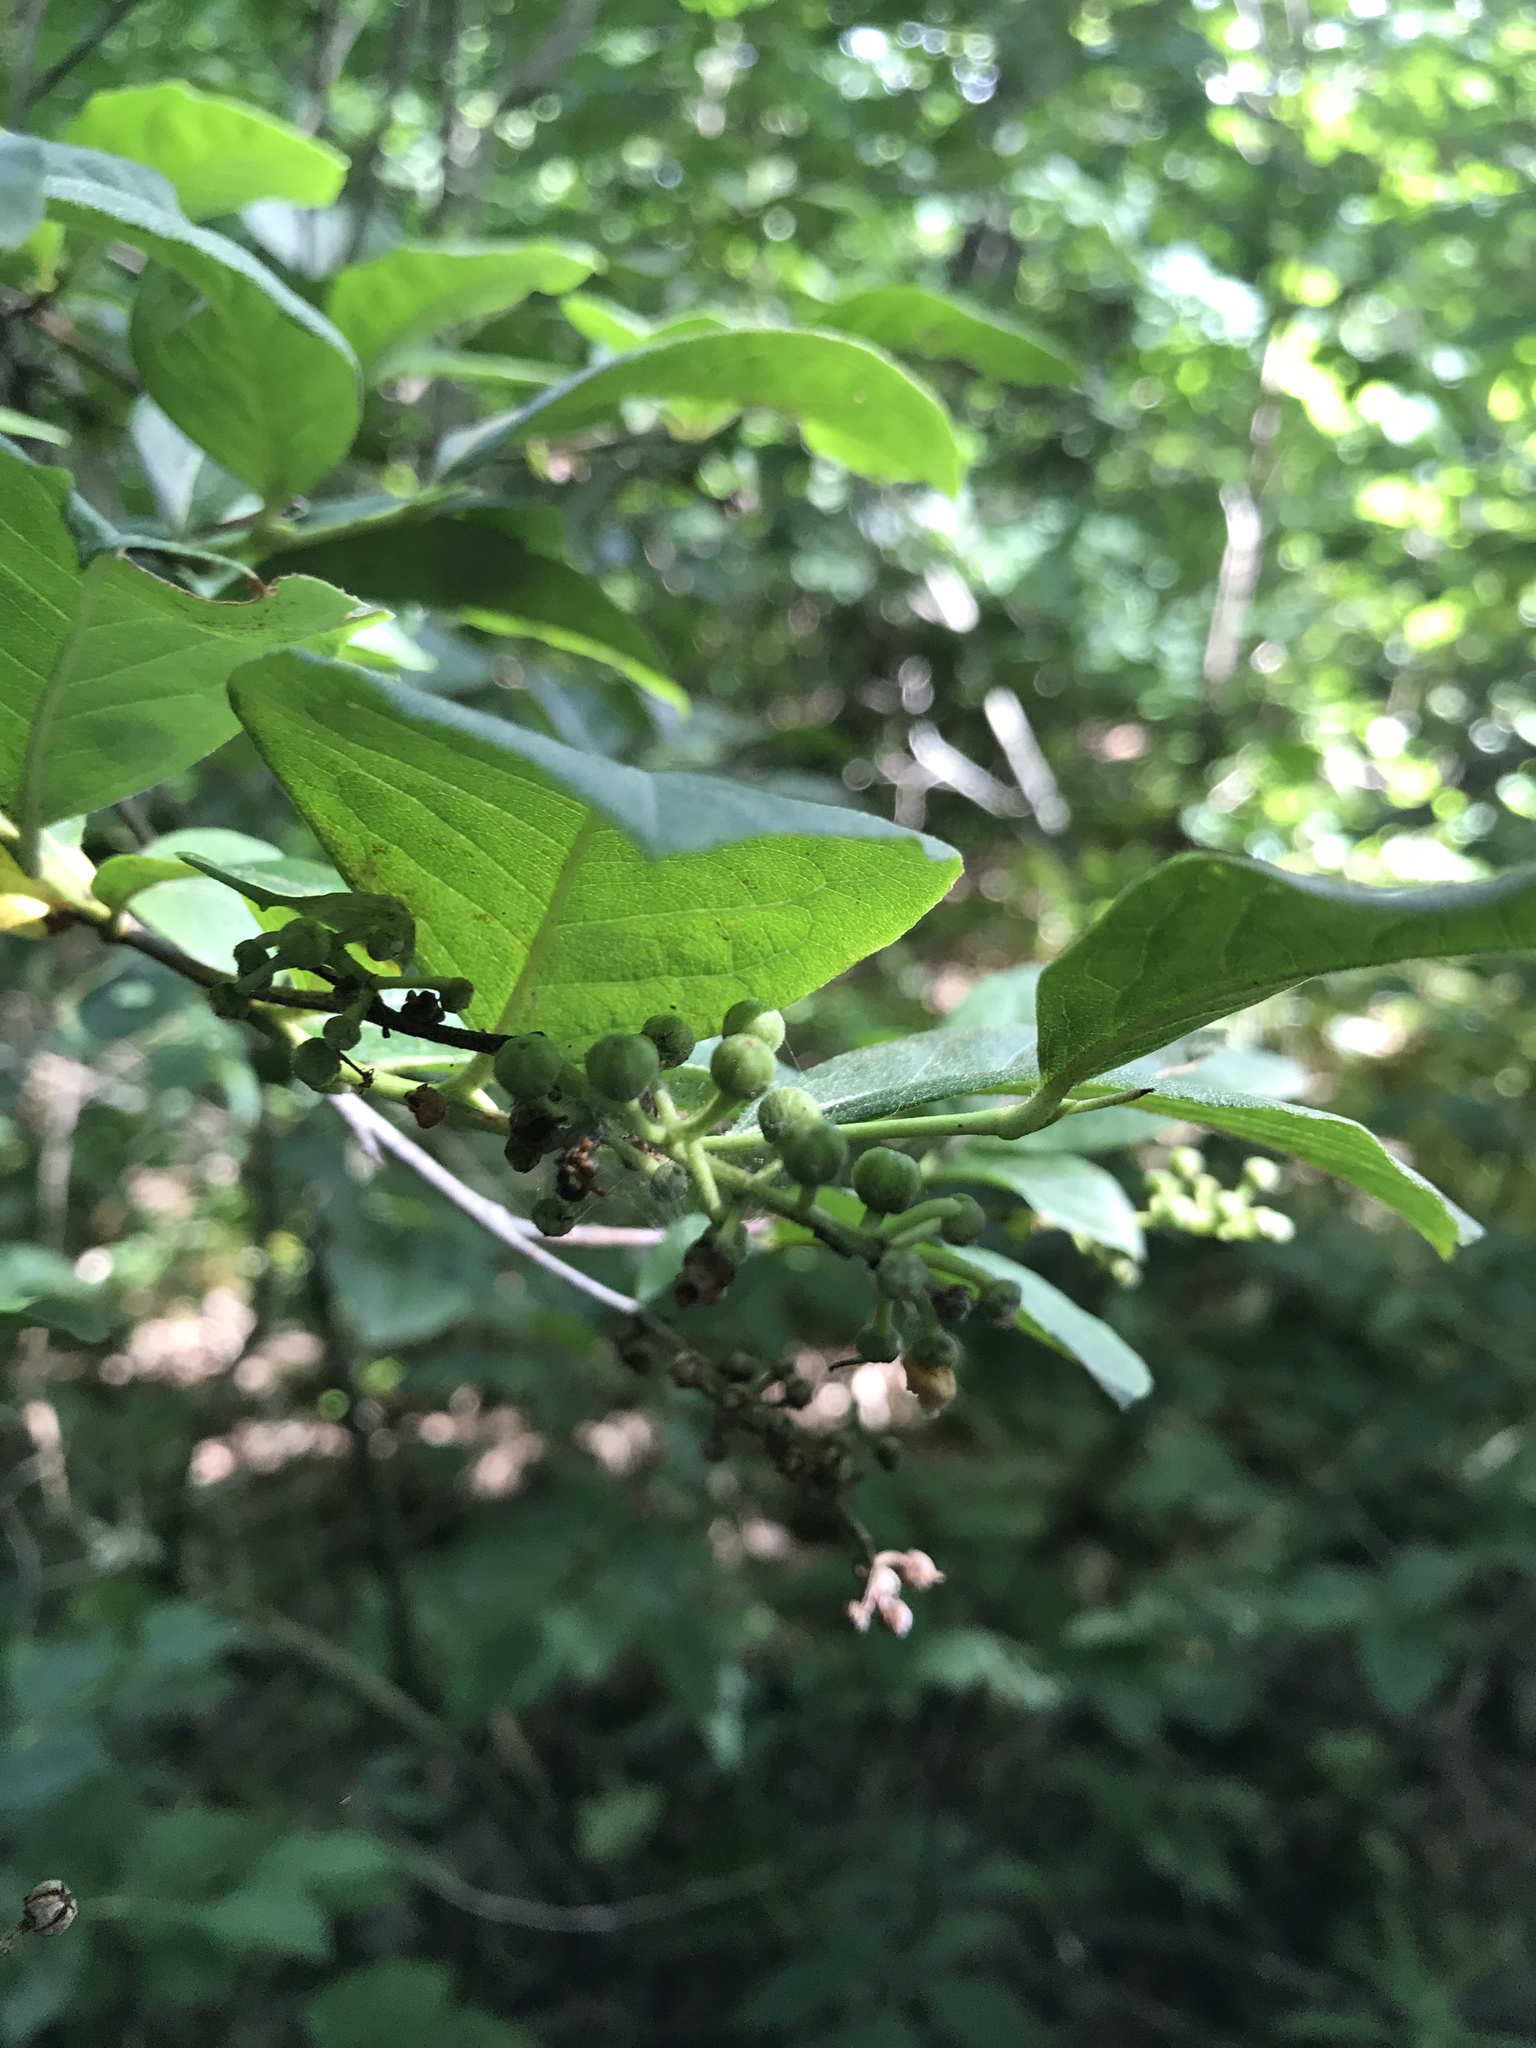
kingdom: Plantae
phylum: Tracheophyta
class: Magnoliopsida
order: Ericales
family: Ericaceae
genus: Lyonia
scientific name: Lyonia ligustrina
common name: Maleberry
